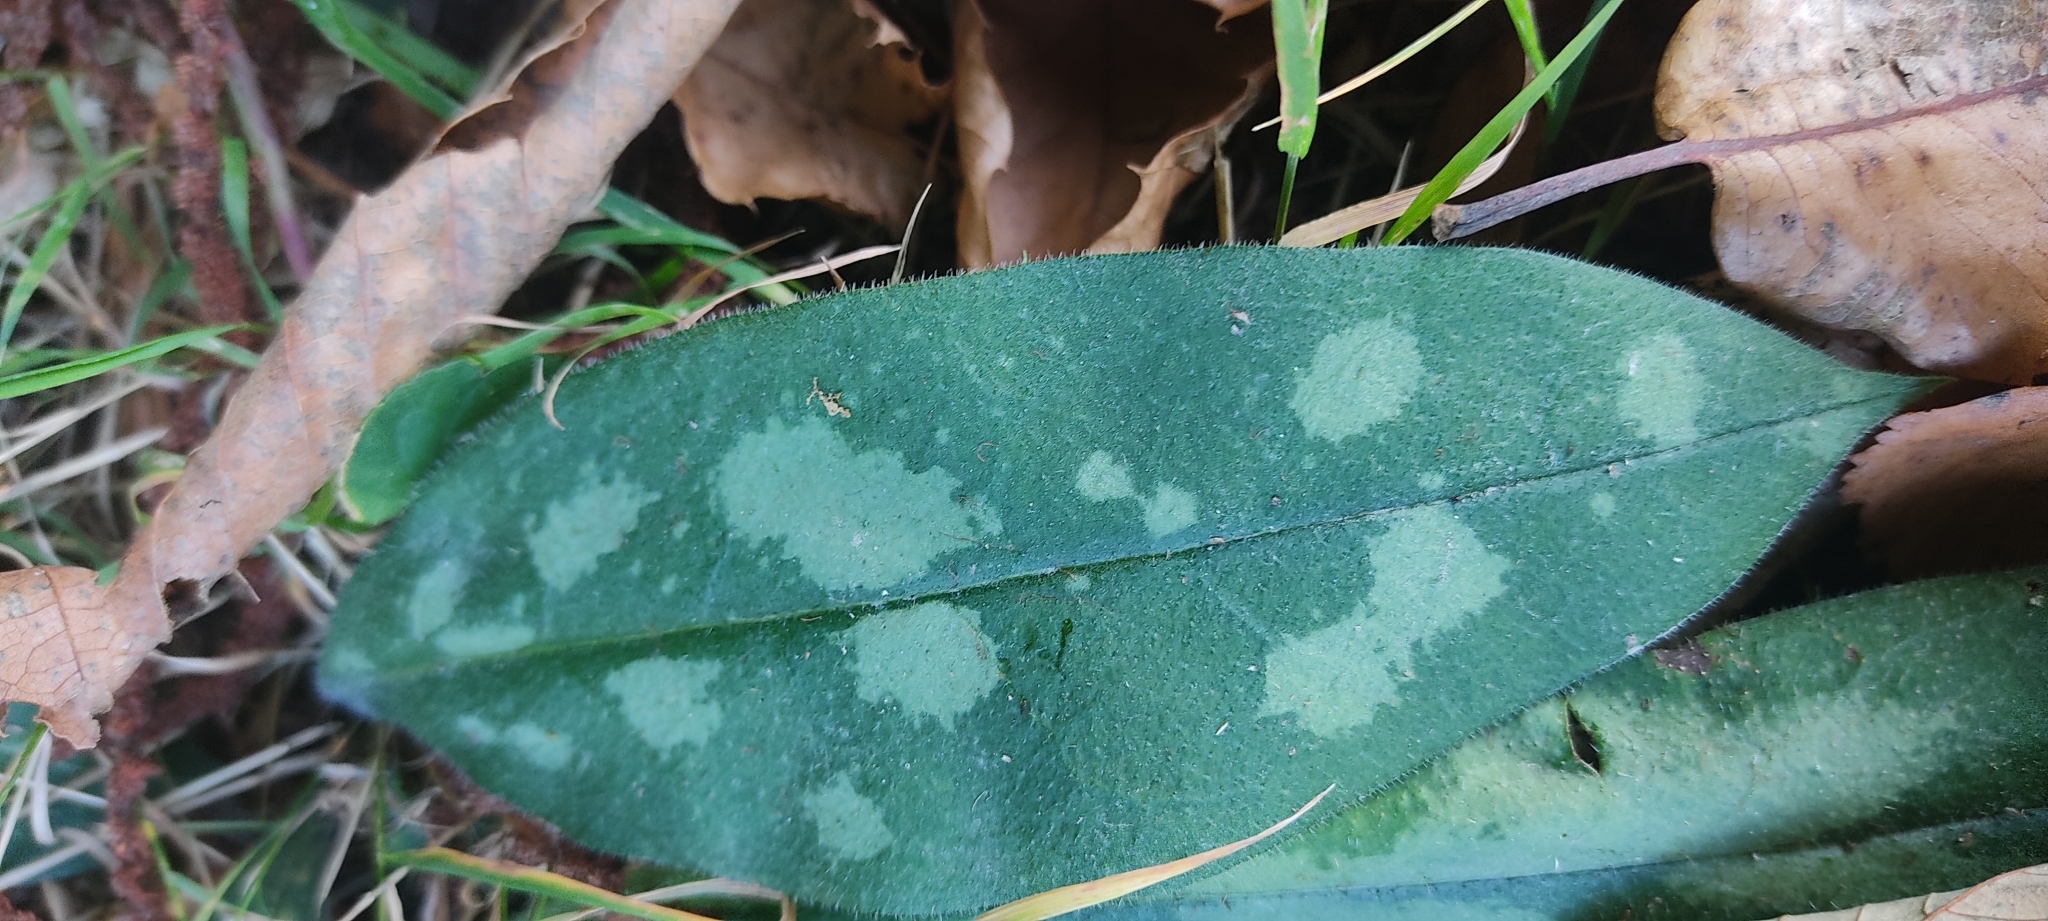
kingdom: Plantae
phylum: Tracheophyta
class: Magnoliopsida
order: Boraginales
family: Boraginaceae
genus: Pulmonaria
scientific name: Pulmonaria longifolia
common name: Narrow-leaved lungwort
